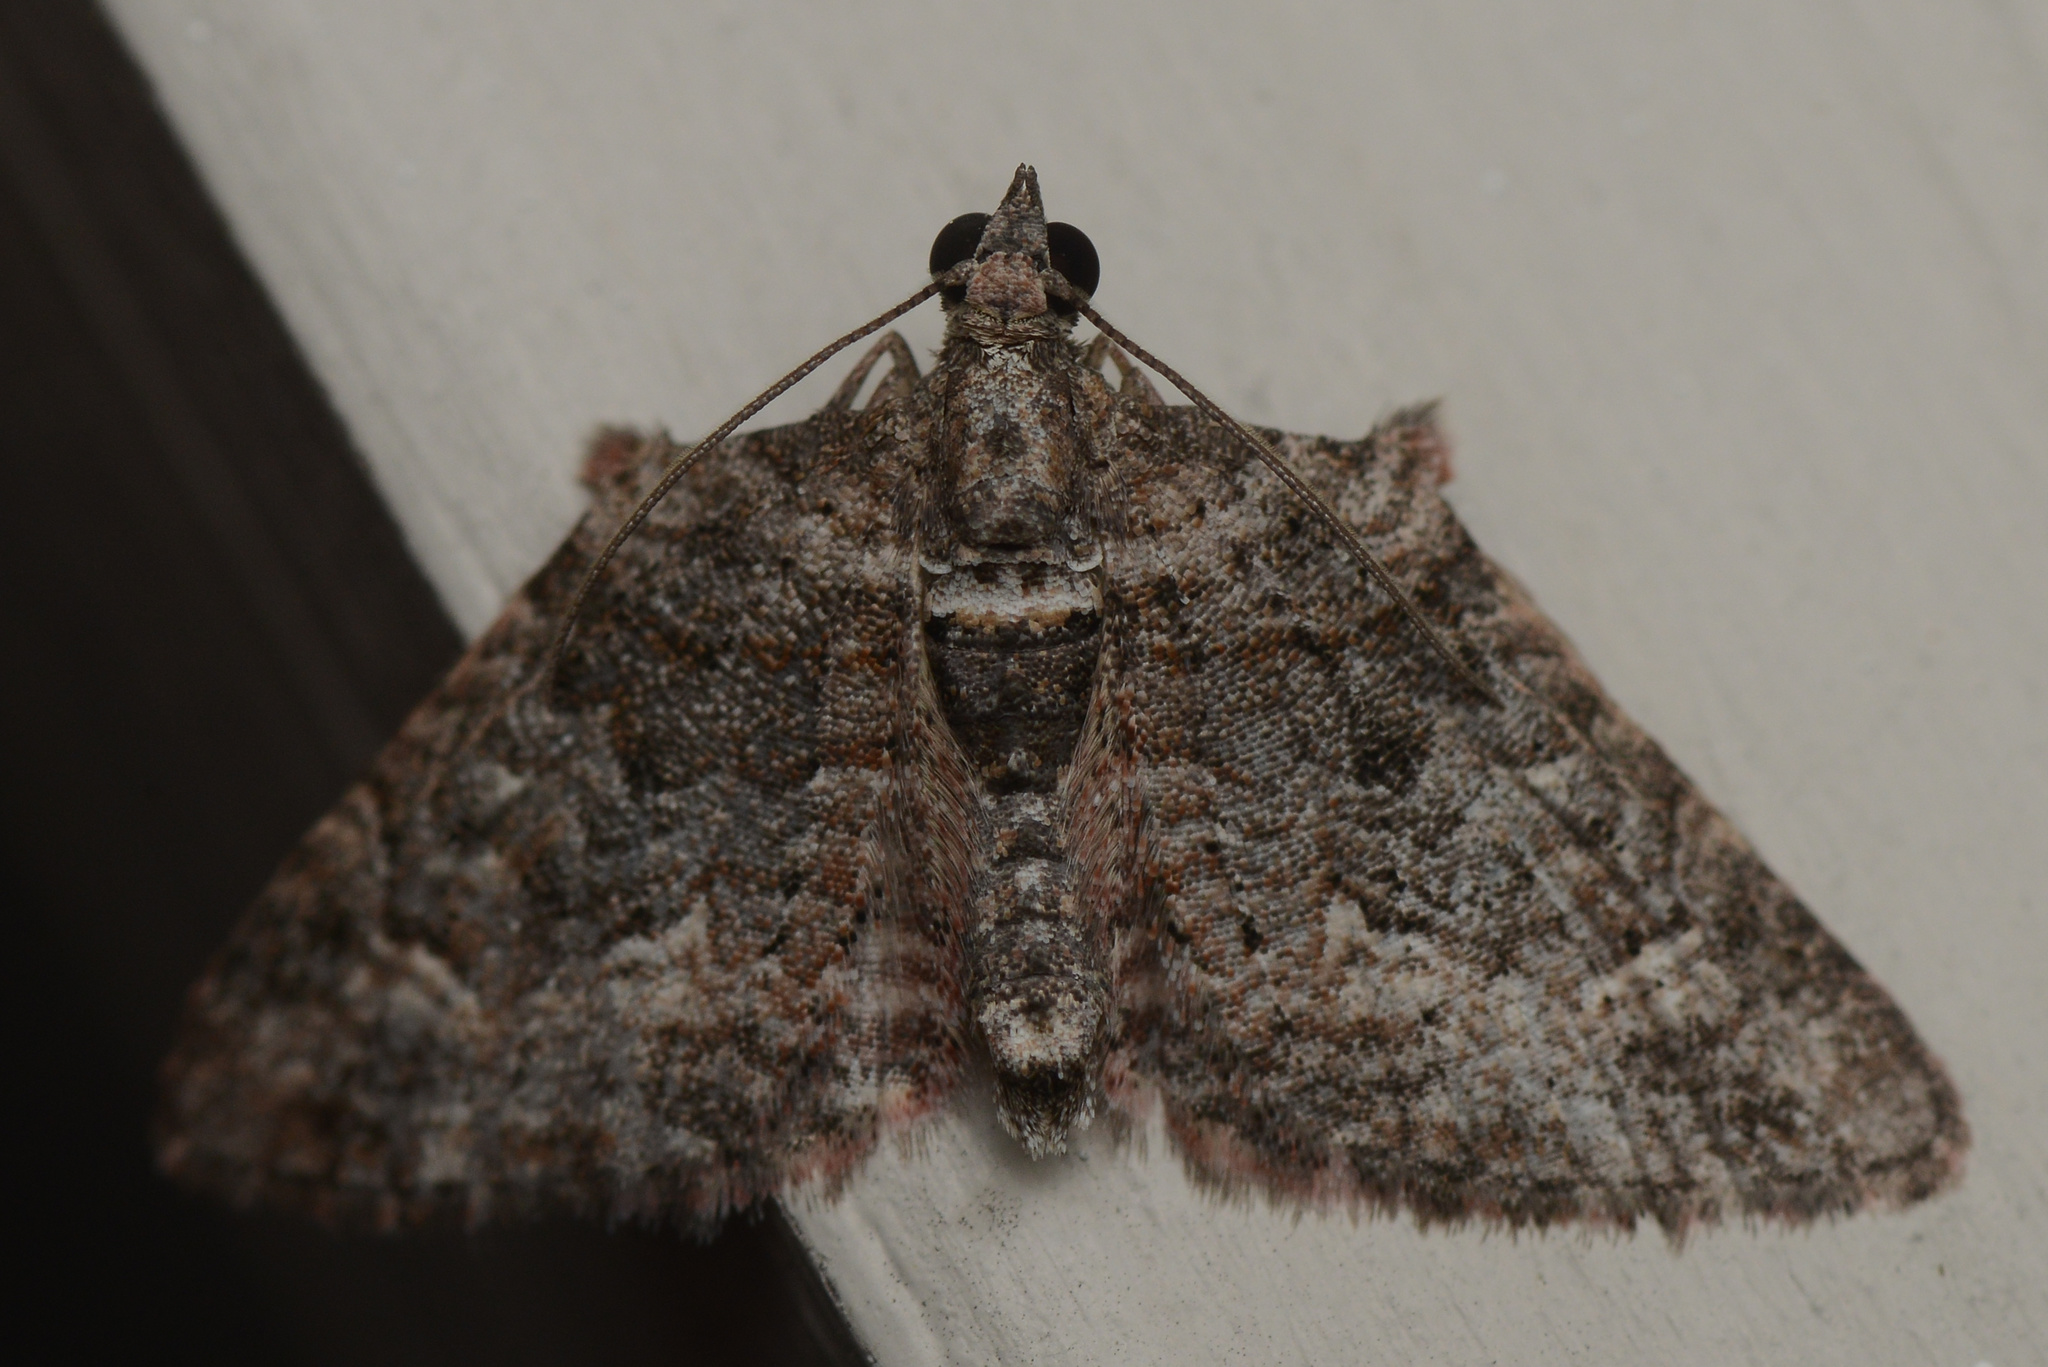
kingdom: Animalia
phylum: Arthropoda
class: Insecta
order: Lepidoptera
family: Geometridae
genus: Phrissogonus
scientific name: Phrissogonus laticostata
